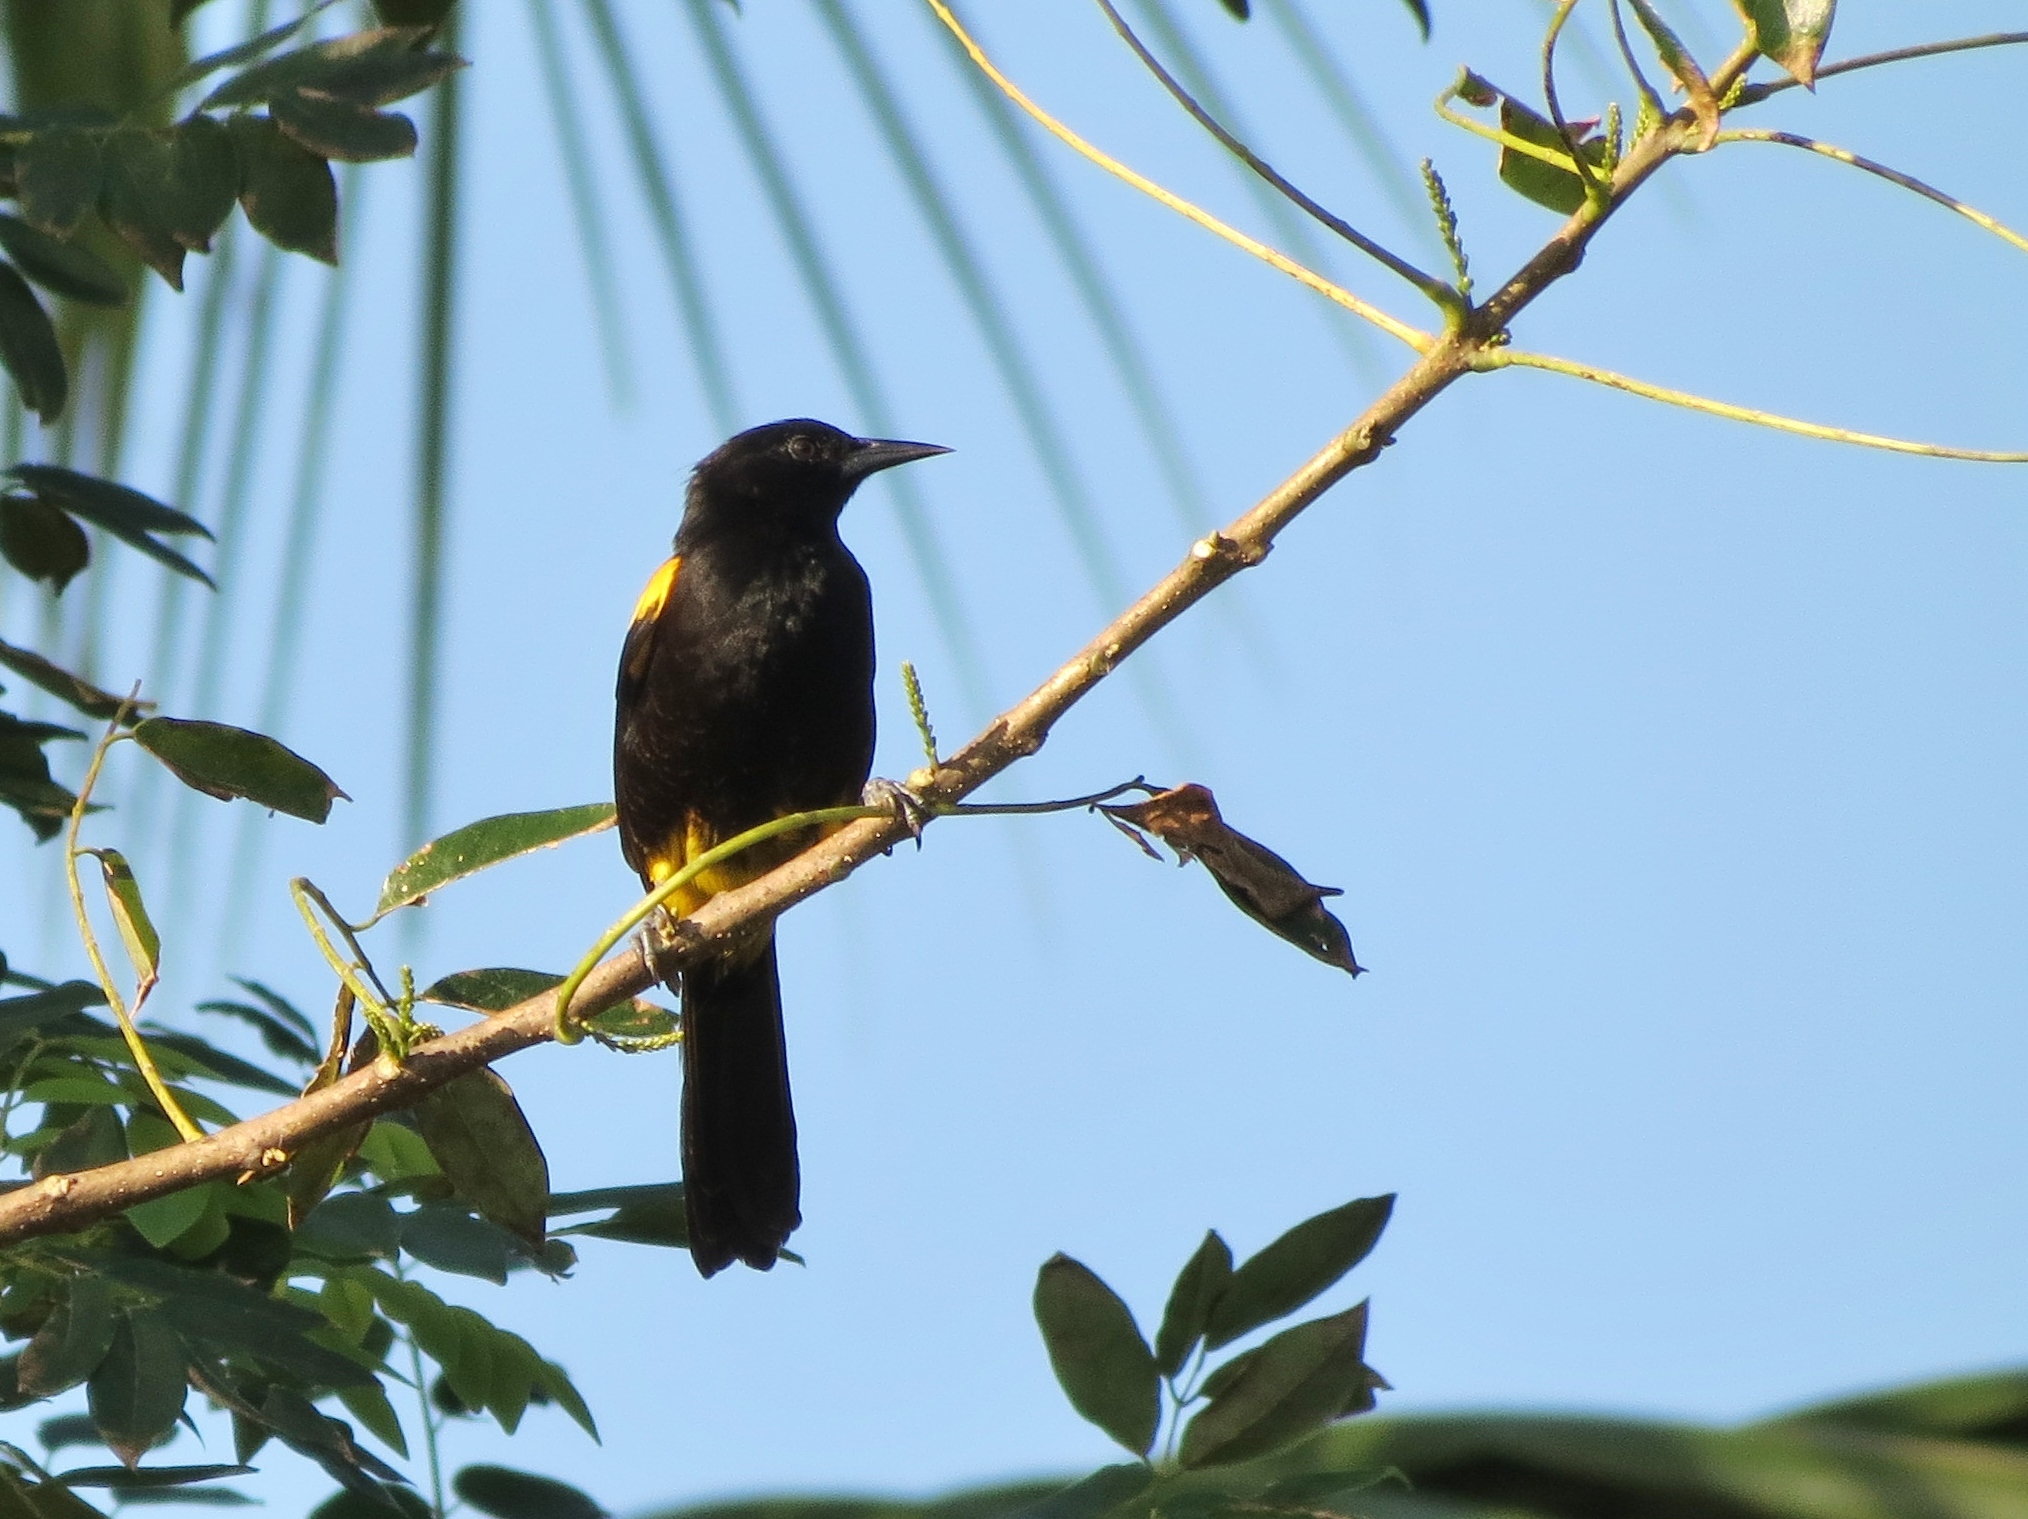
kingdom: Animalia
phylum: Chordata
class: Aves
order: Passeriformes
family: Icteridae
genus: Icterus
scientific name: Icterus portoricensis
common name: Puerto rican oriole
